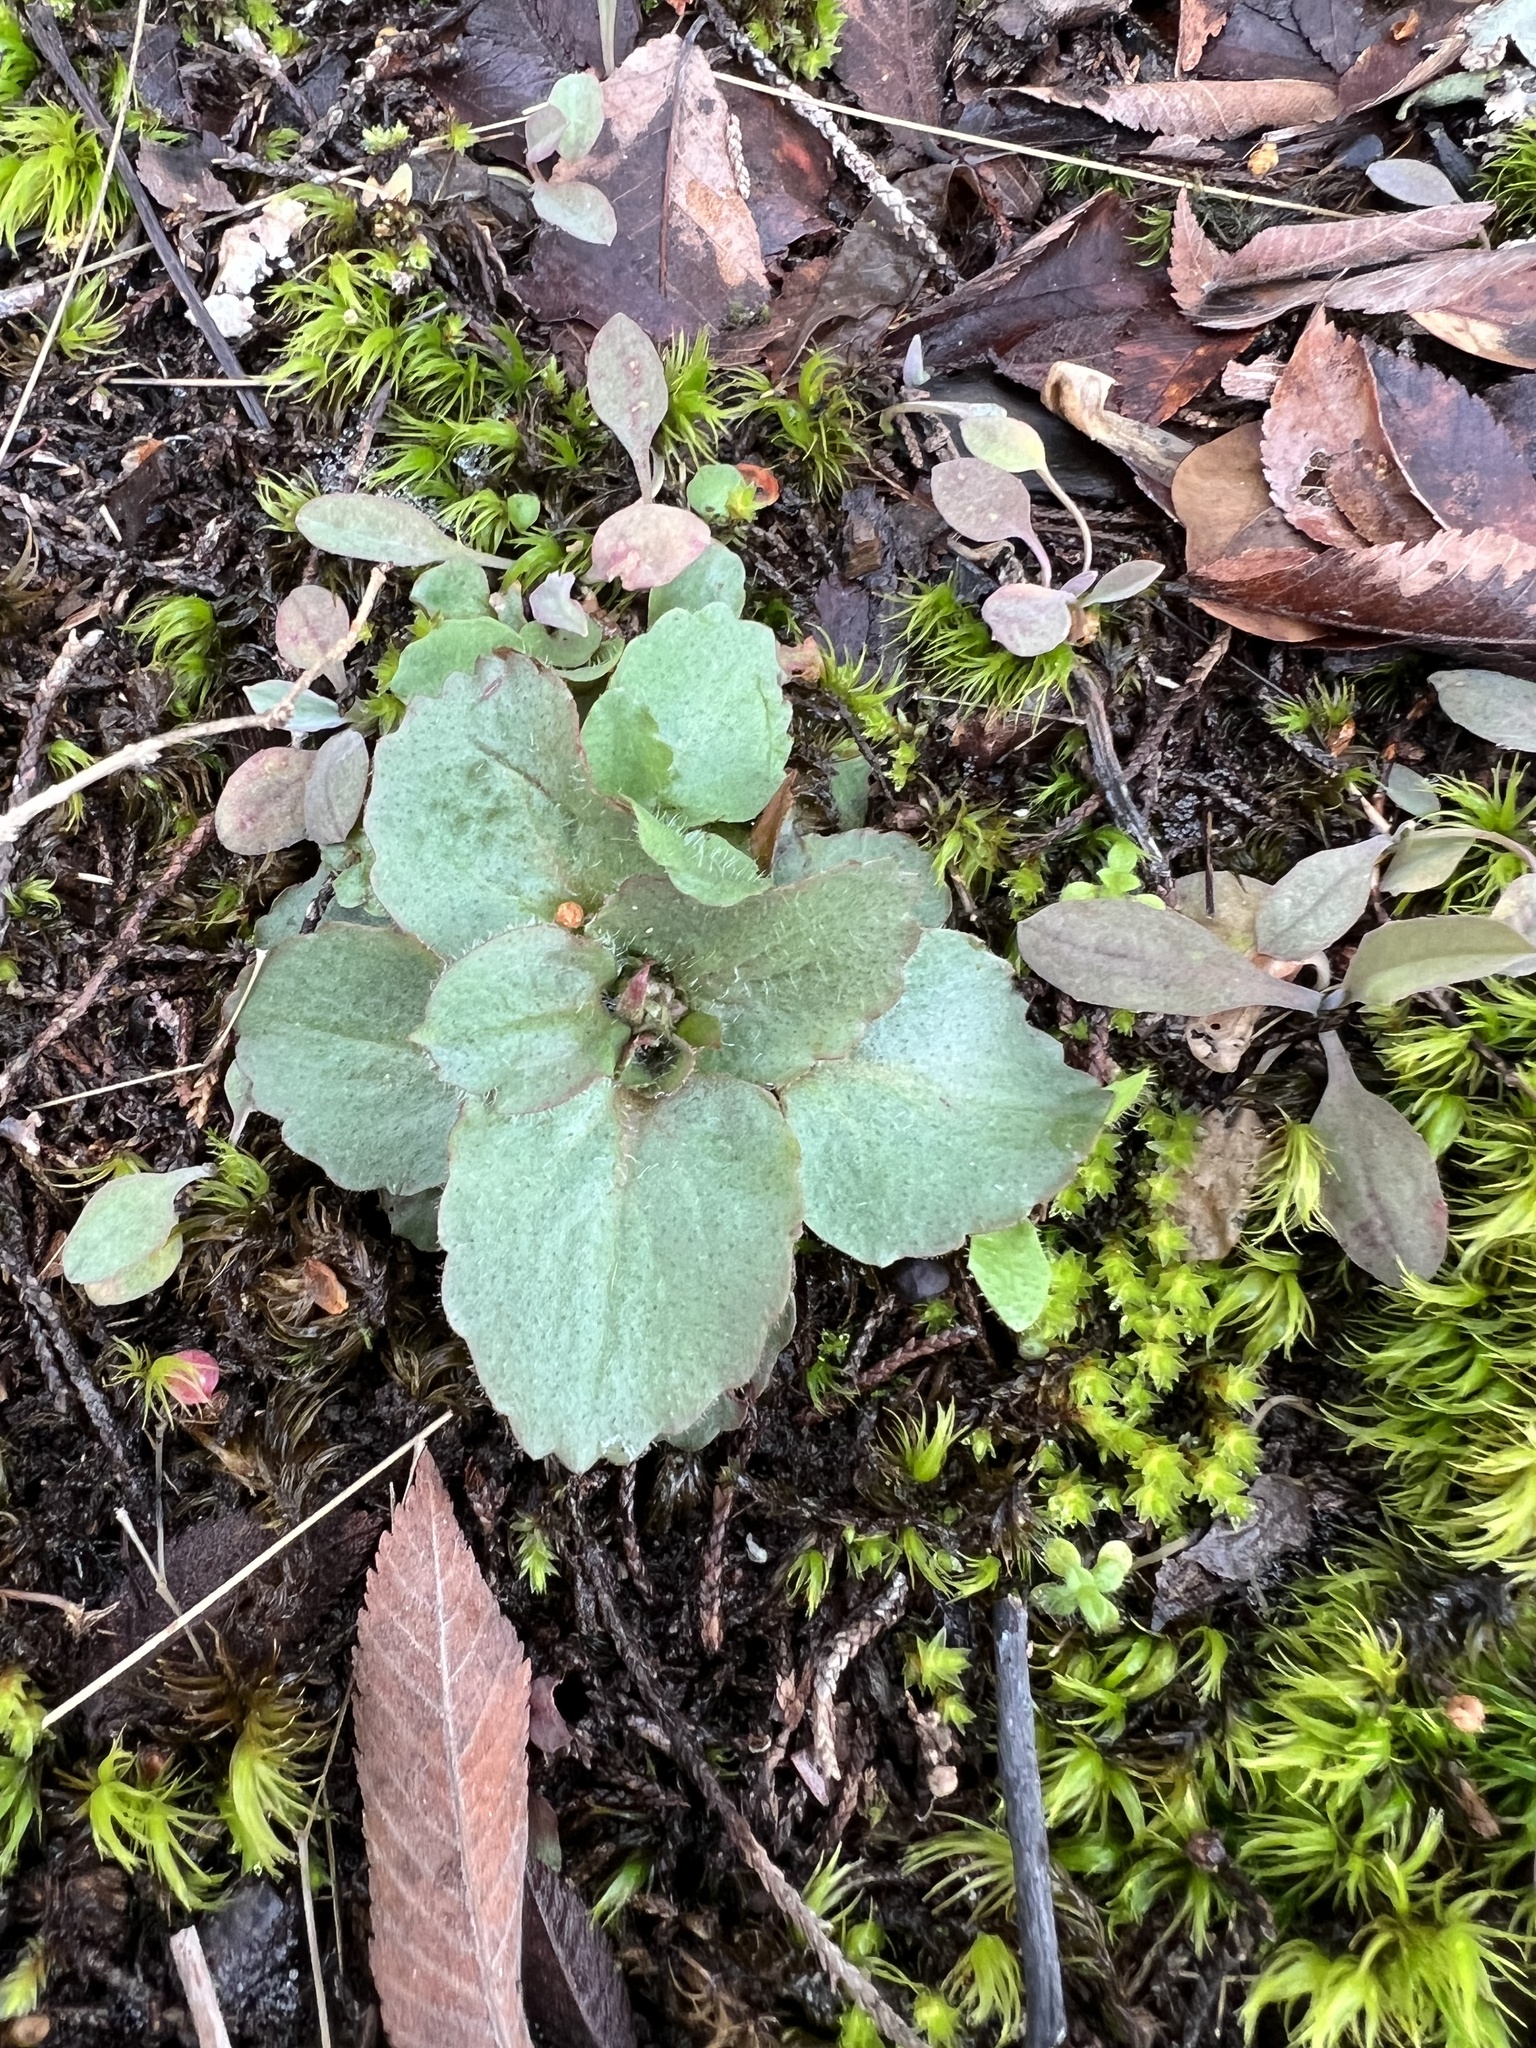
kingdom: Plantae
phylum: Tracheophyta
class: Magnoliopsida
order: Saxifragales
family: Saxifragaceae
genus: Micranthes
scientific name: Micranthes virginiensis
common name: Early saxifrage
